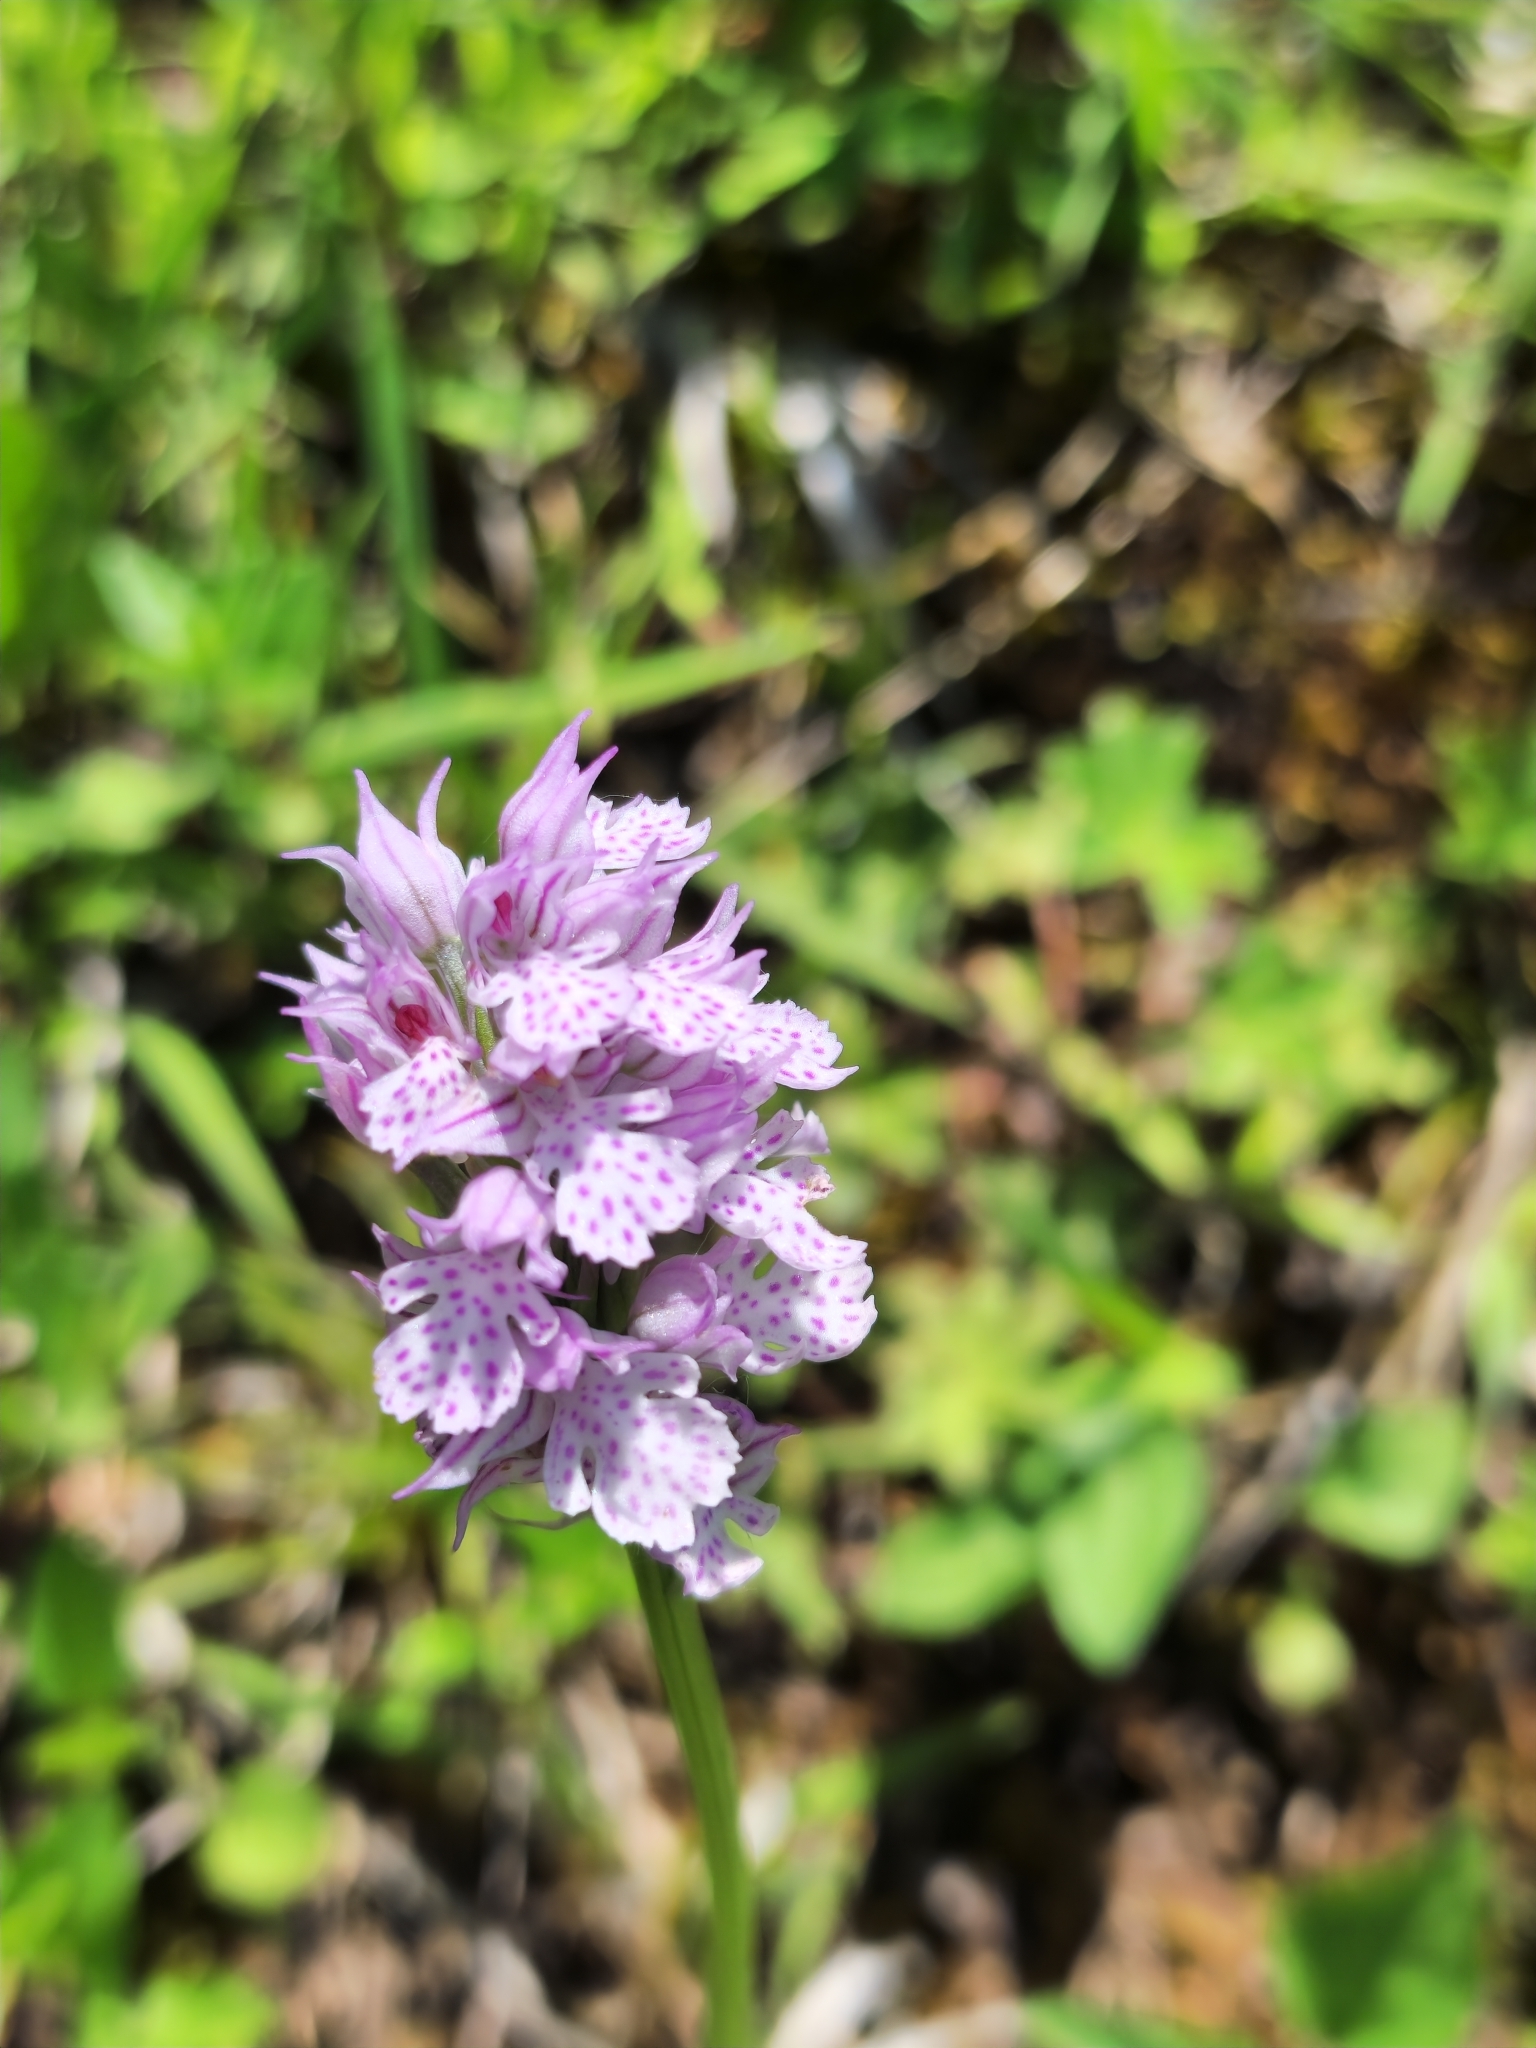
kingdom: Plantae
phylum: Tracheophyta
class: Liliopsida
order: Asparagales
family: Orchidaceae
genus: Neotinea
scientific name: Neotinea tridentata
